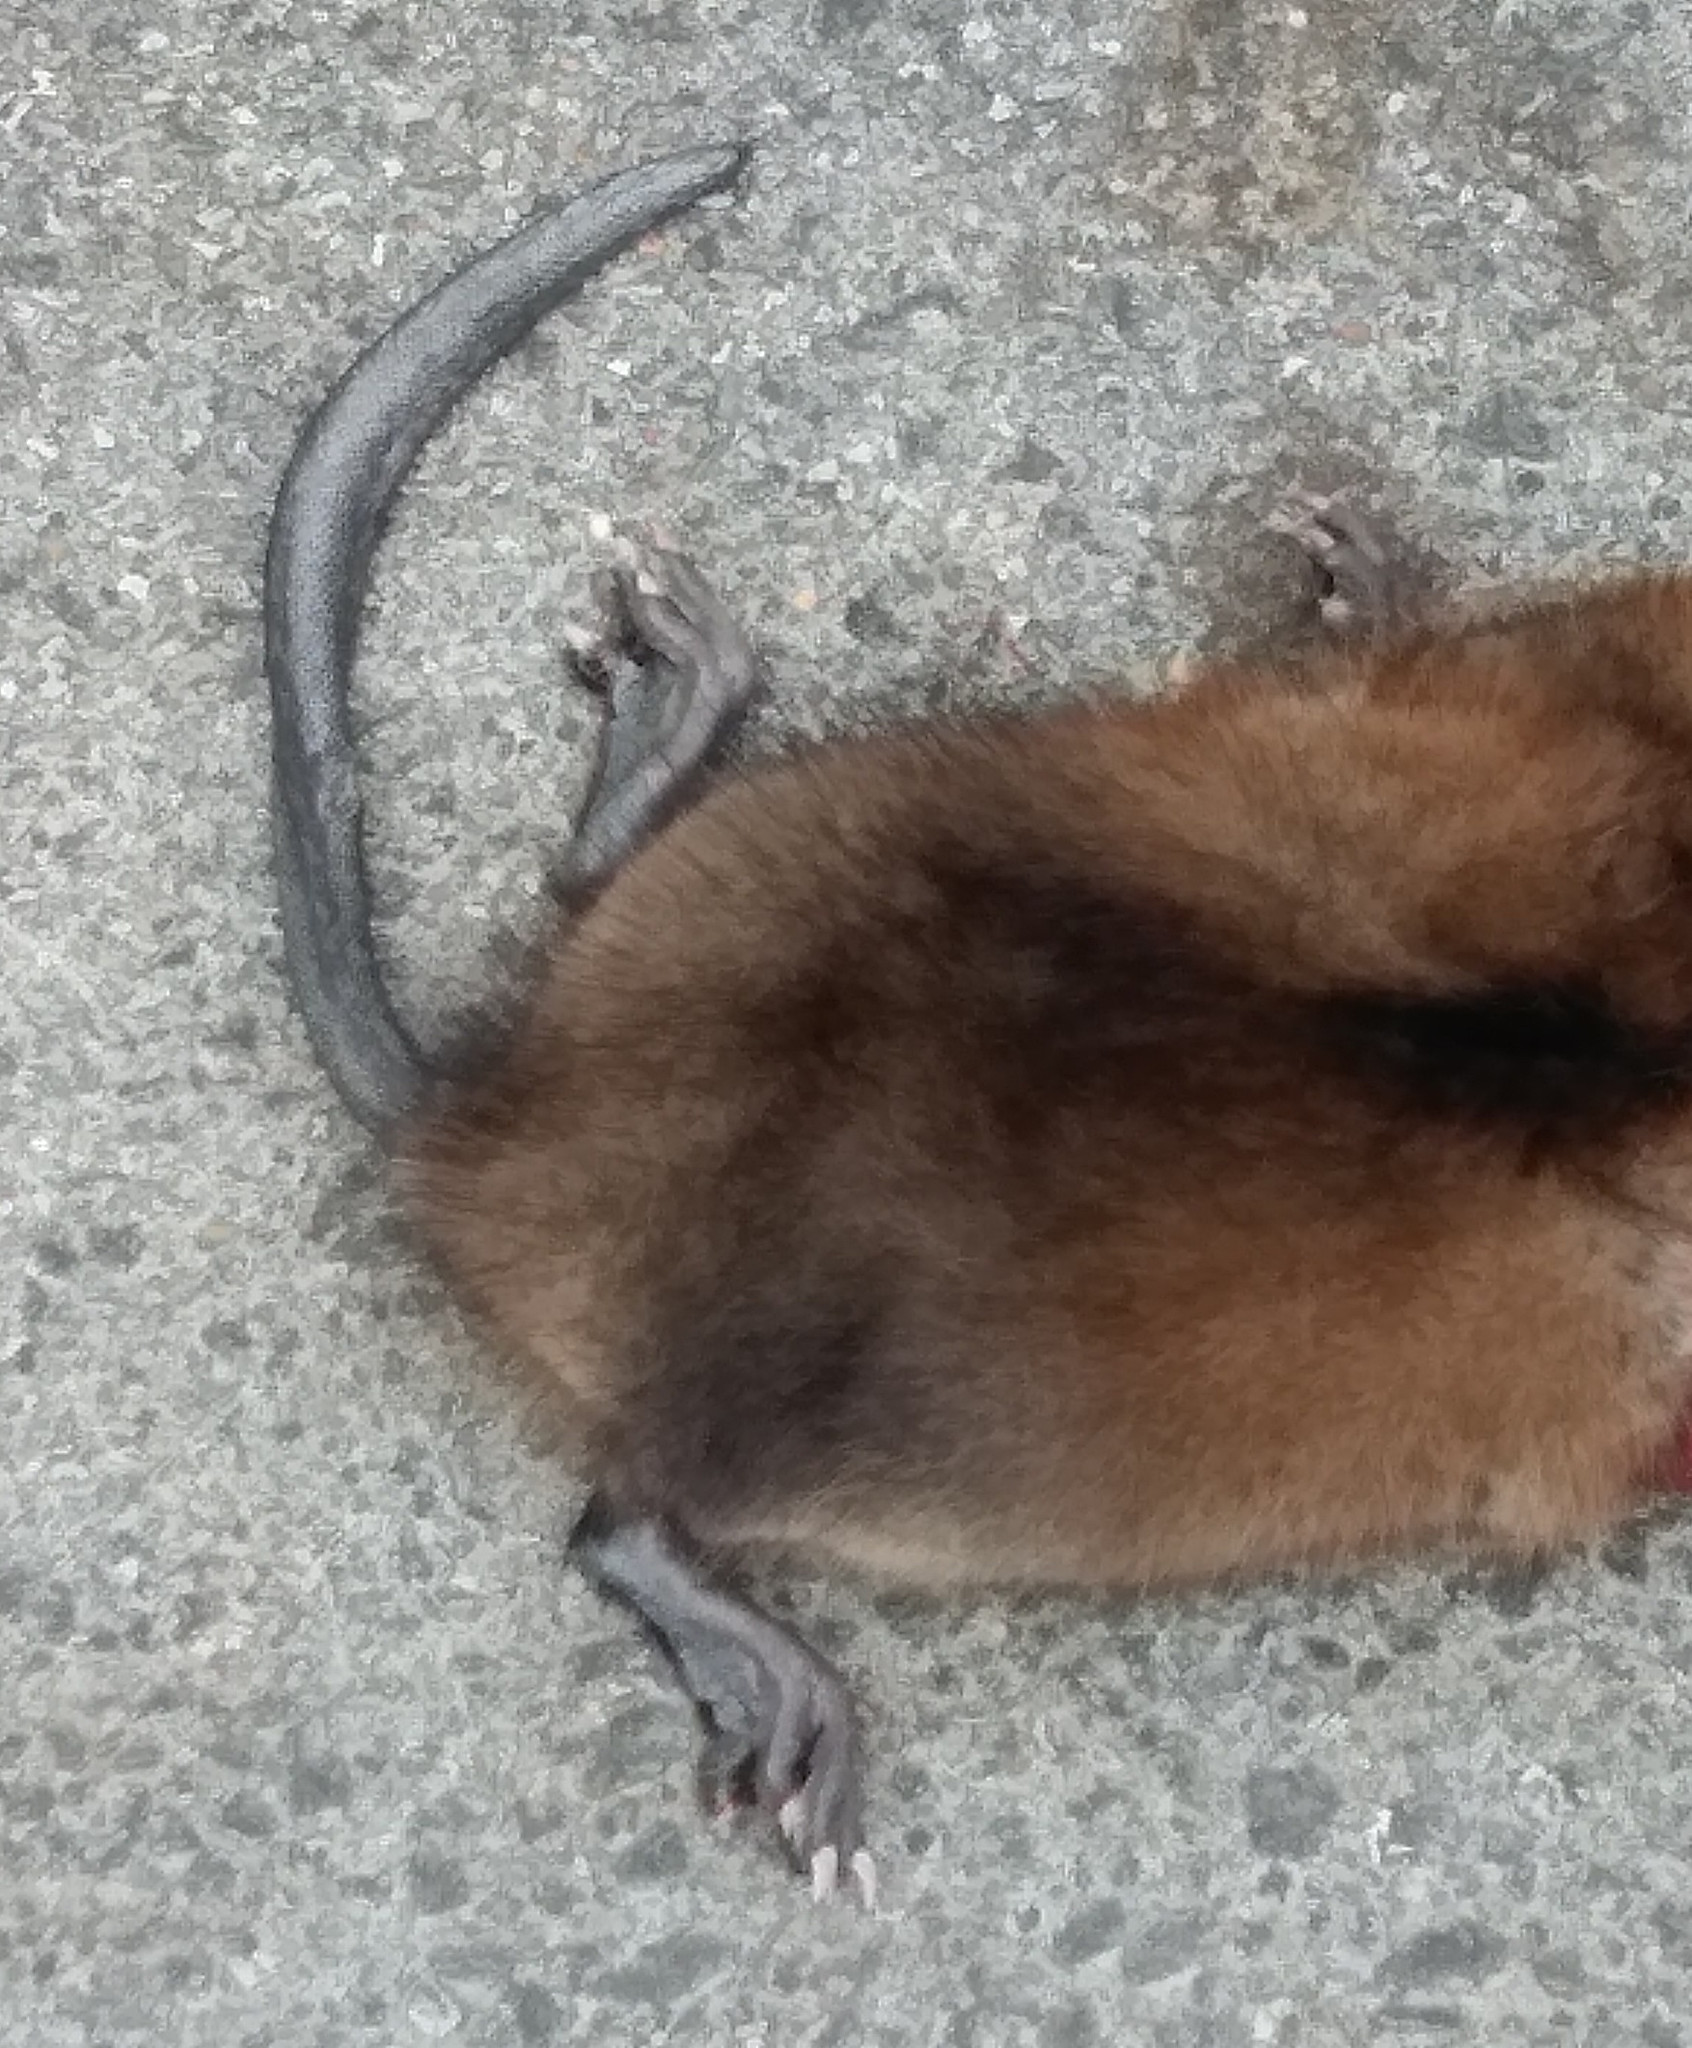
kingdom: Animalia
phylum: Chordata
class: Mammalia
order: Rodentia
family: Cricetidae
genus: Ondatra
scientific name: Ondatra zibethicus
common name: Muskrat
